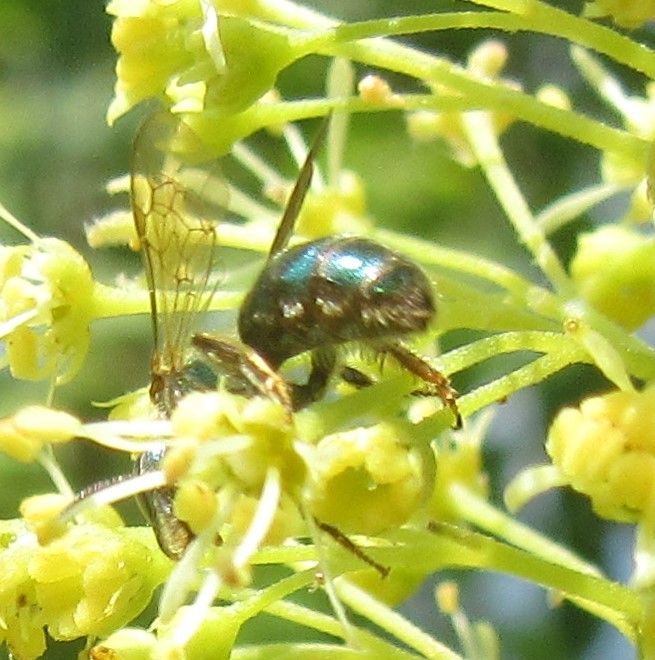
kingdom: Animalia
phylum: Arthropoda
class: Insecta
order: Hymenoptera
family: Halictidae
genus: Augochlorella
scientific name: Augochlorella aurata
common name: Golden sweat bee
